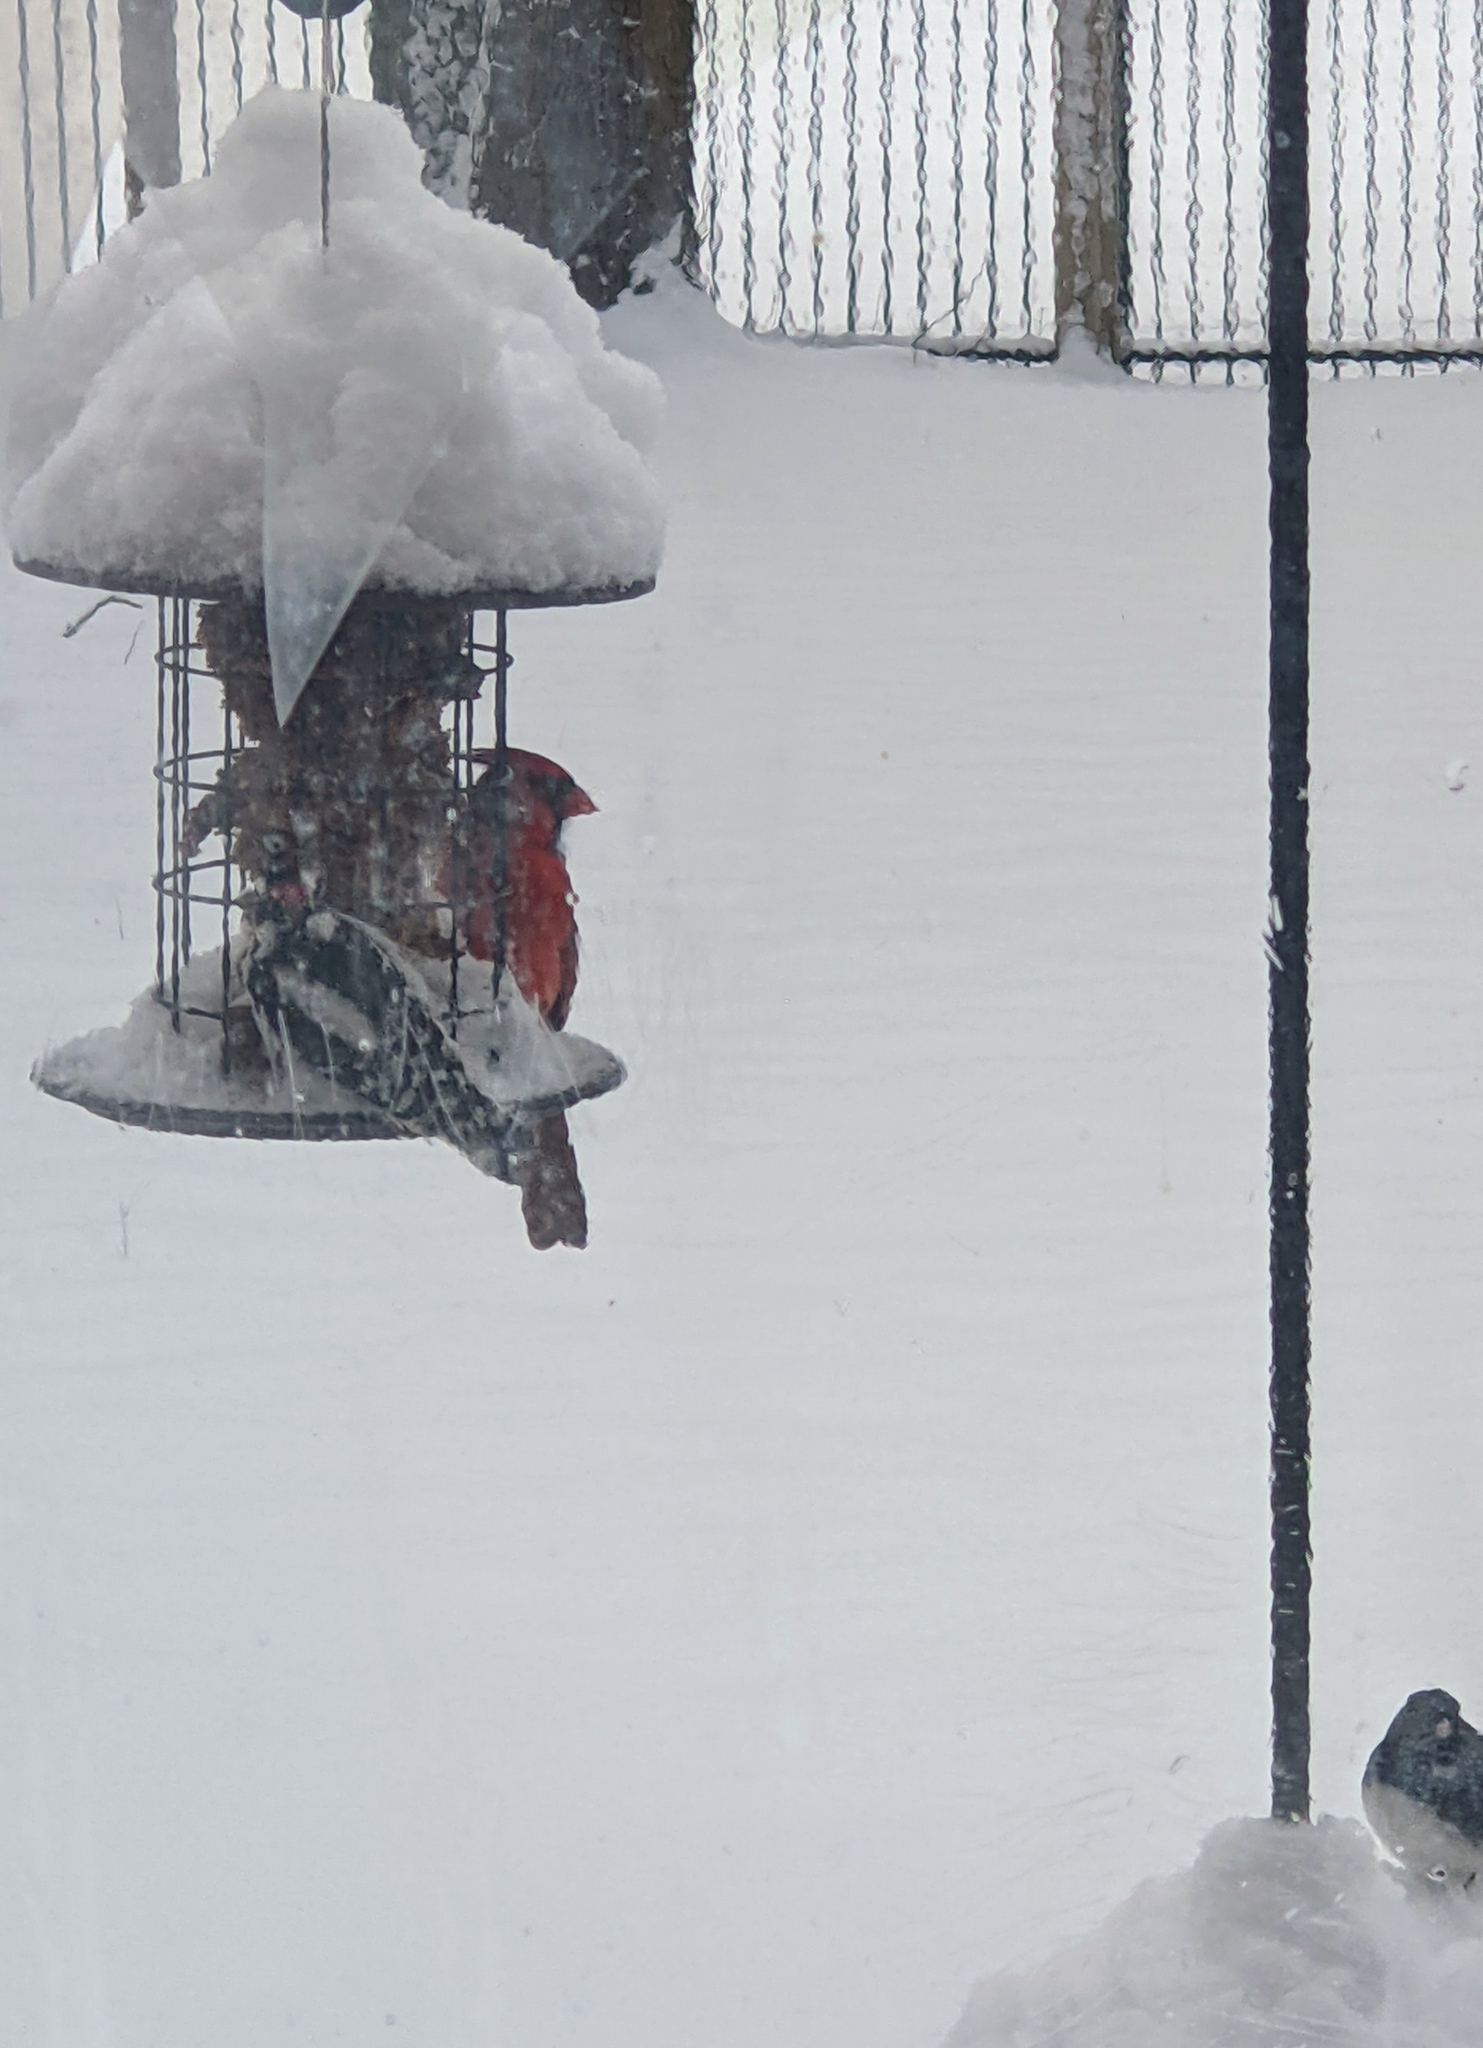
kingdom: Animalia
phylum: Chordata
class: Aves
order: Passeriformes
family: Cardinalidae
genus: Cardinalis
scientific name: Cardinalis cardinalis
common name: Northern cardinal
